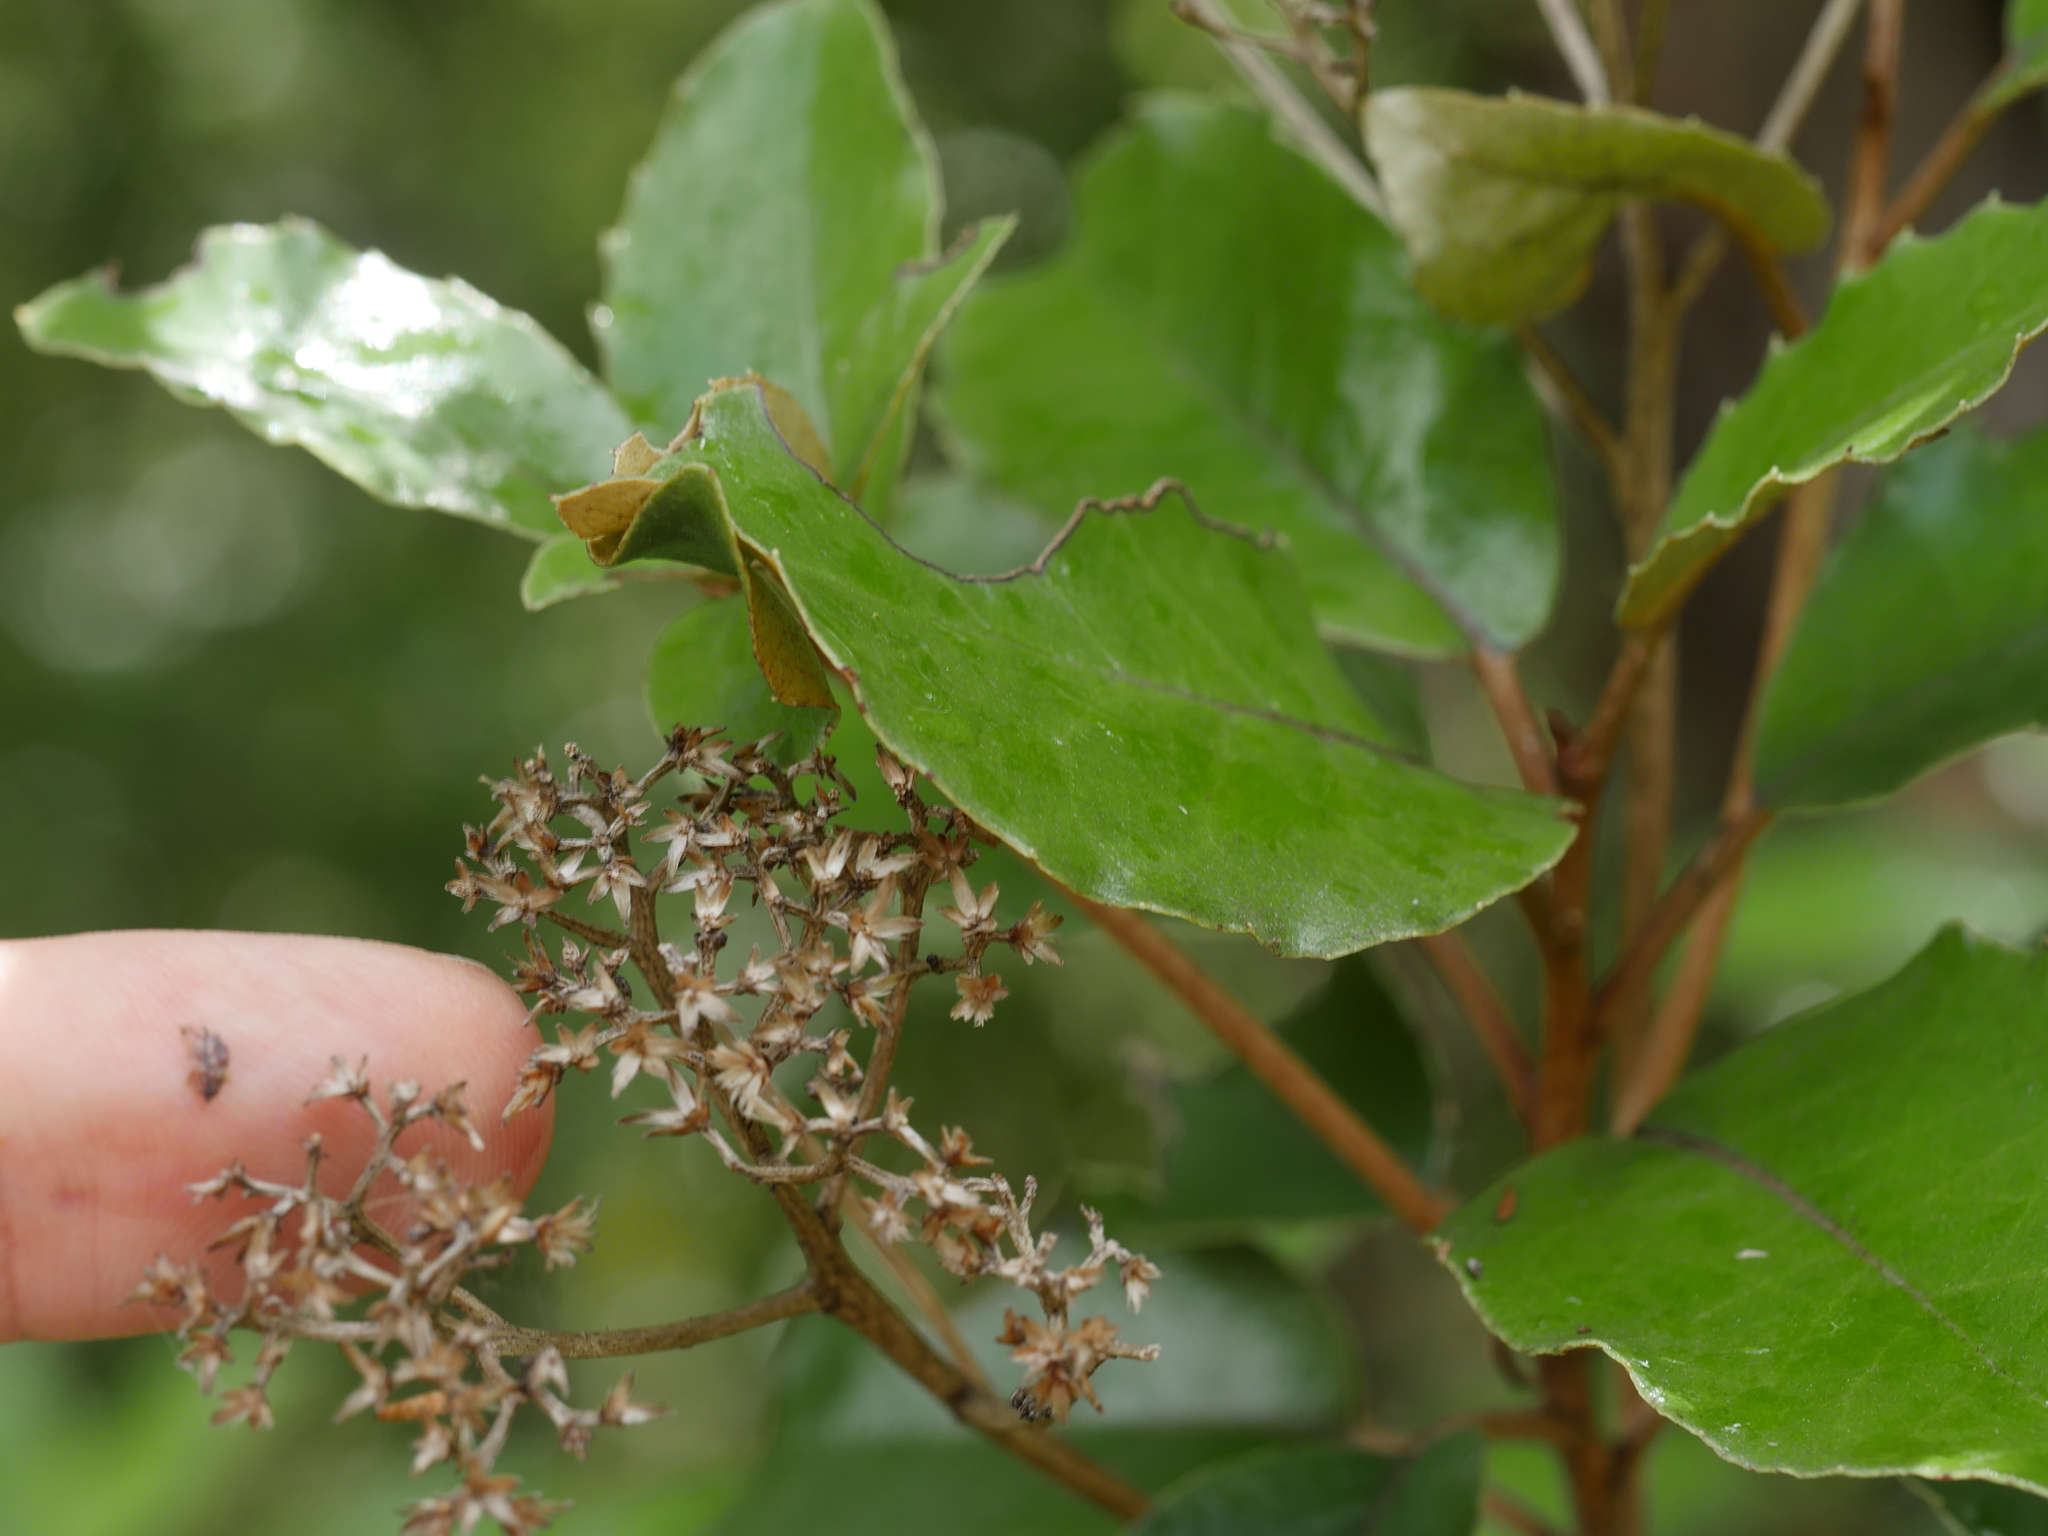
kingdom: Plantae
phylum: Tracheophyta
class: Magnoliopsida
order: Asterales
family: Asteraceae
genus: Olearia
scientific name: Olearia furfuracea
